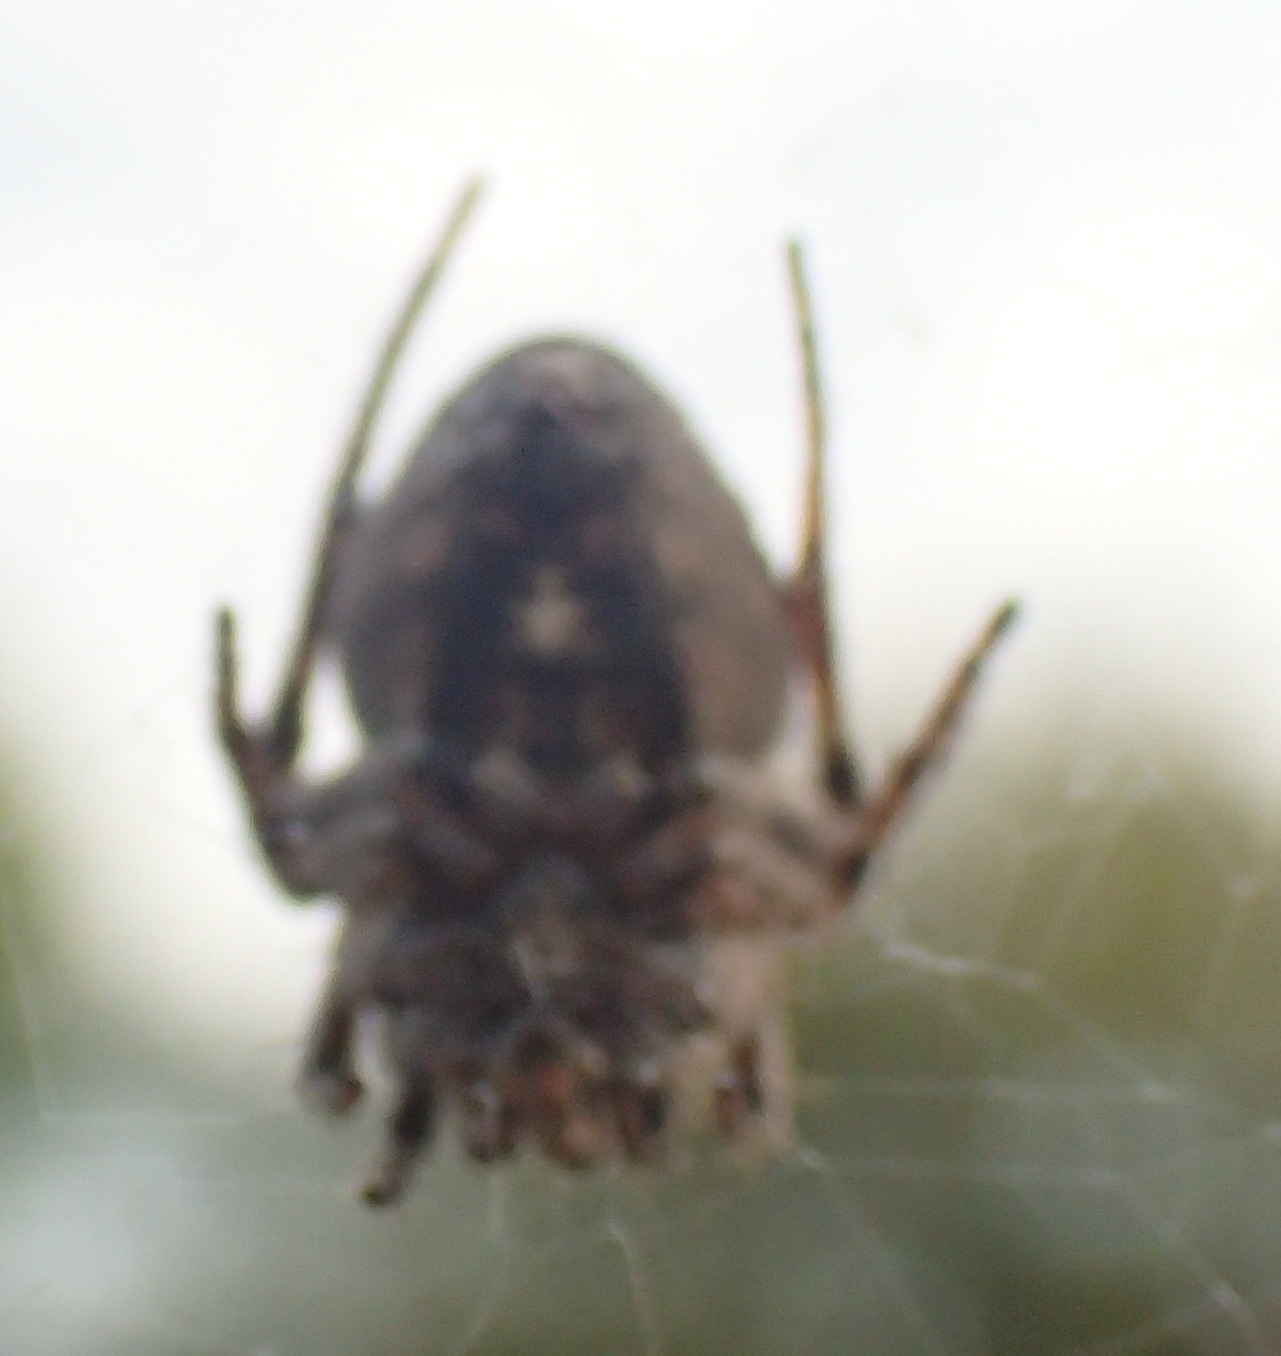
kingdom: Animalia
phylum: Arthropoda
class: Arachnida
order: Araneae
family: Araneidae
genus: Eustala
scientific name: Eustala anastera
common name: Orb weavers
